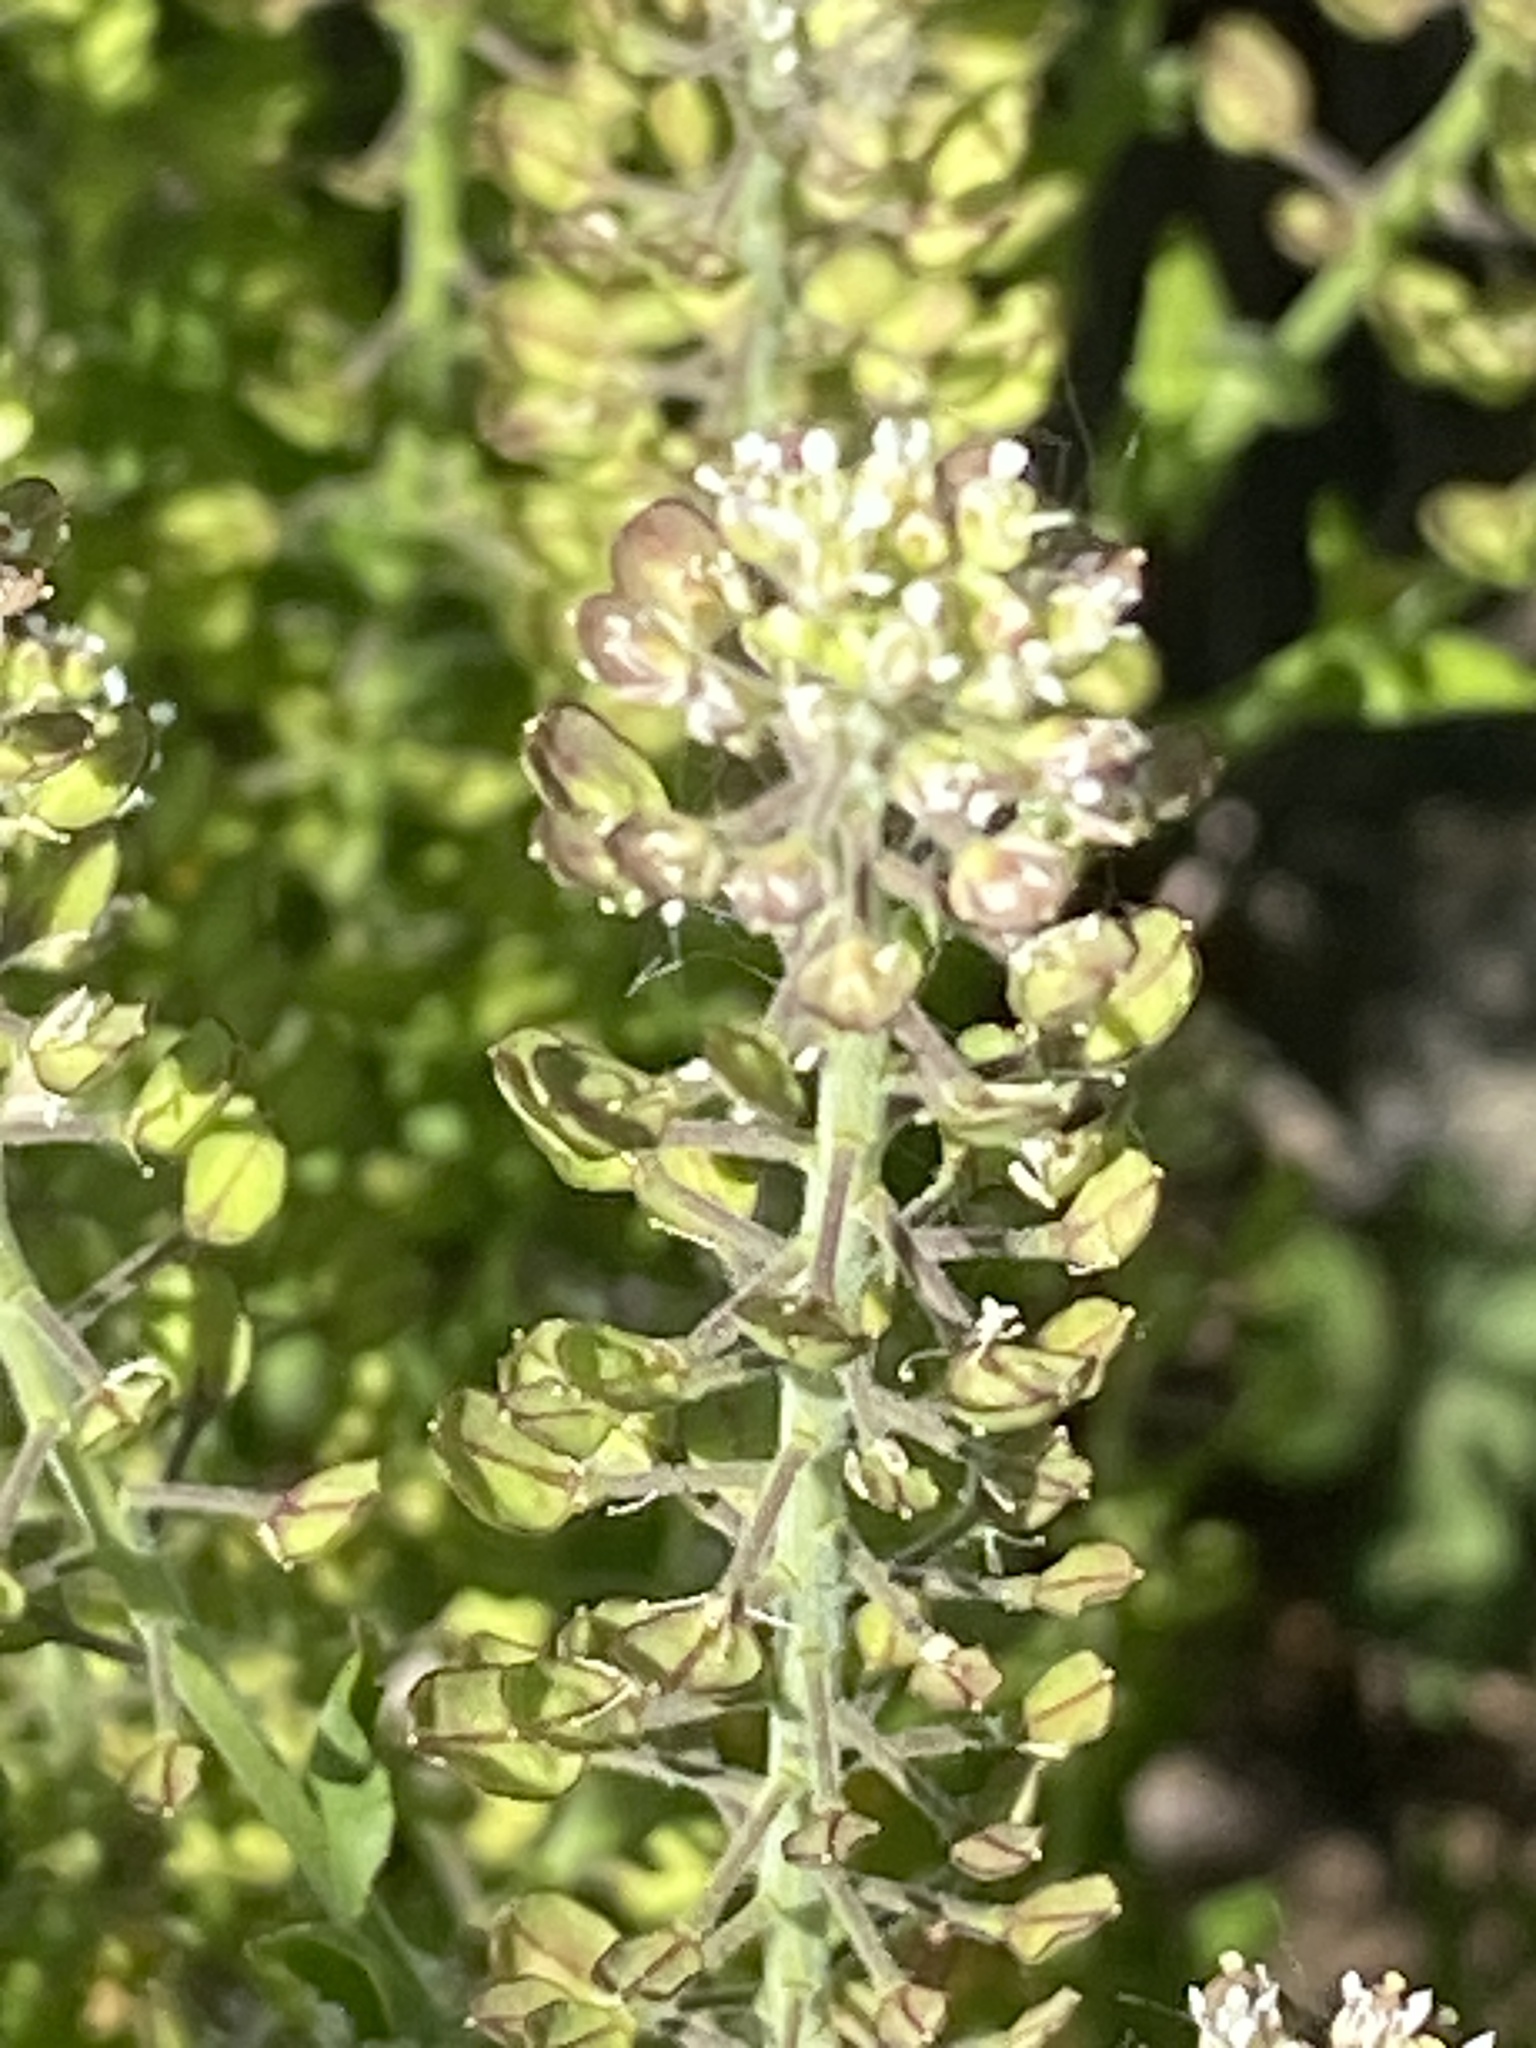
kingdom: Plantae
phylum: Tracheophyta
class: Magnoliopsida
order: Brassicales
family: Brassicaceae
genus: Lepidium
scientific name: Lepidium campestre
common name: Field pepperwort
